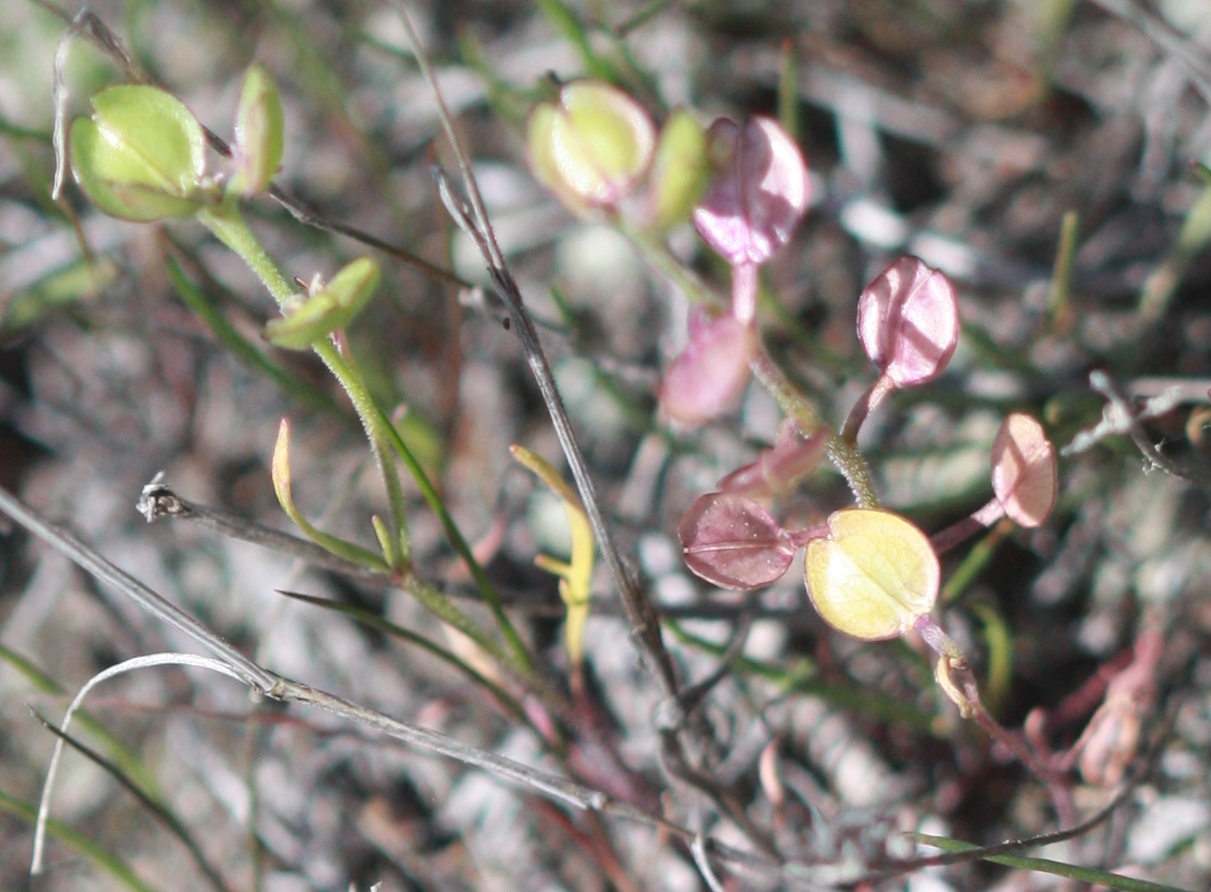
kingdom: Plantae
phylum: Tracheophyta
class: Magnoliopsida
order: Brassicales
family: Brassicaceae
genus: Lepidium
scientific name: Lepidium nitidum
